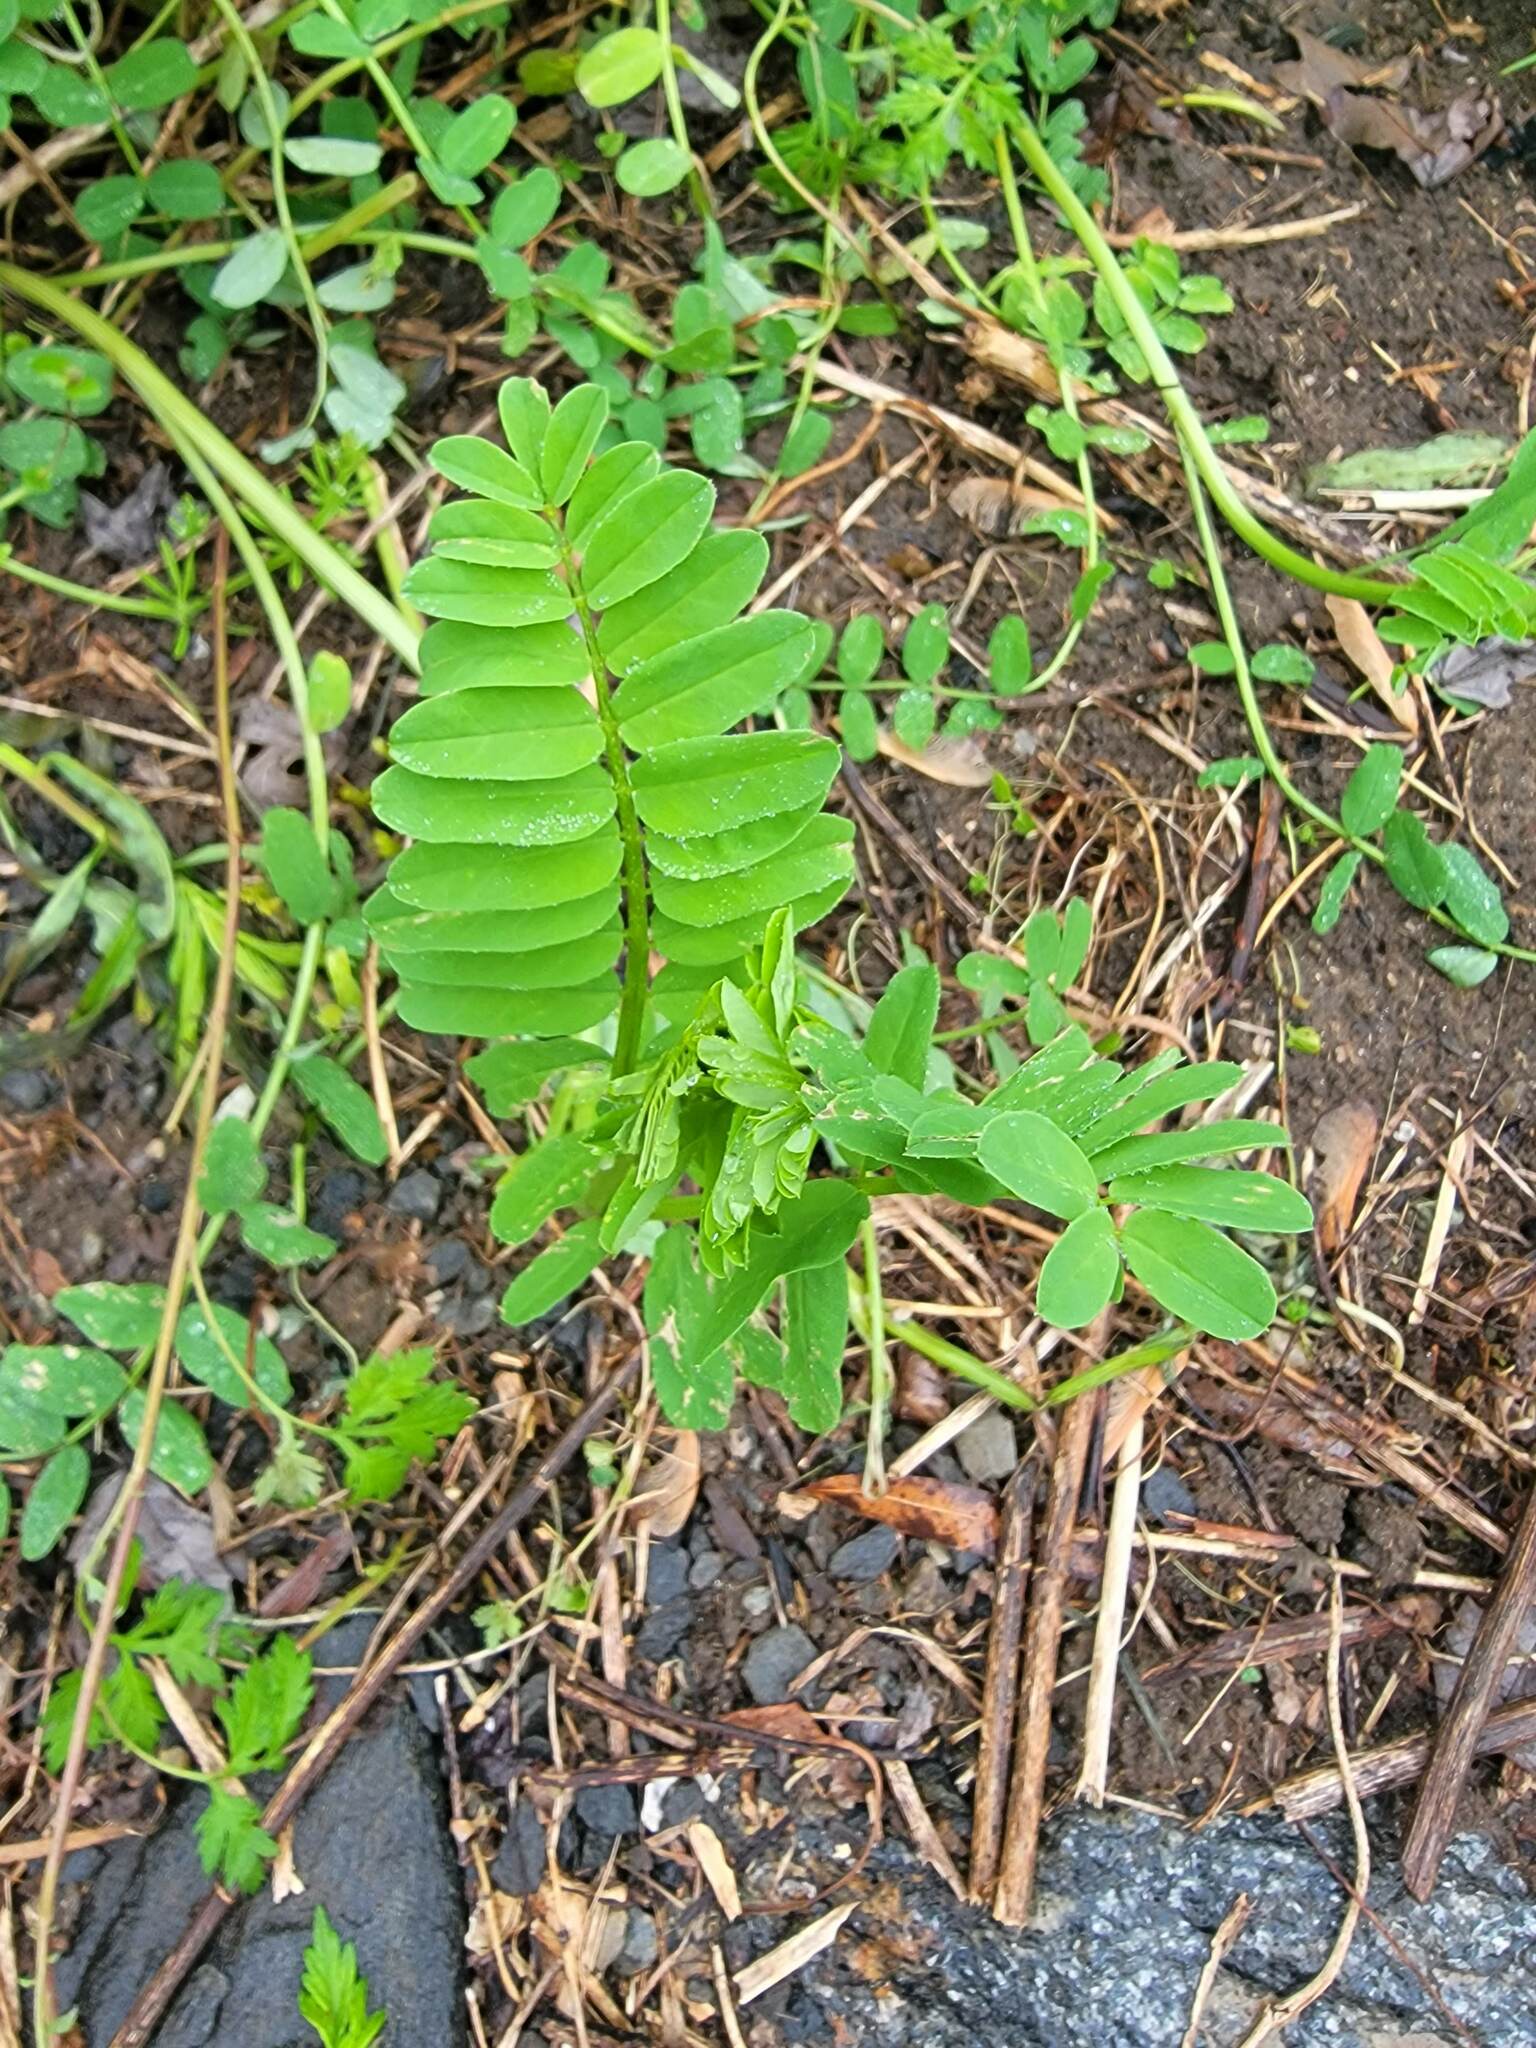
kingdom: Plantae
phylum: Tracheophyta
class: Magnoliopsida
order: Fabales
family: Fabaceae
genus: Coronilla
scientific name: Coronilla varia
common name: Crownvetch
